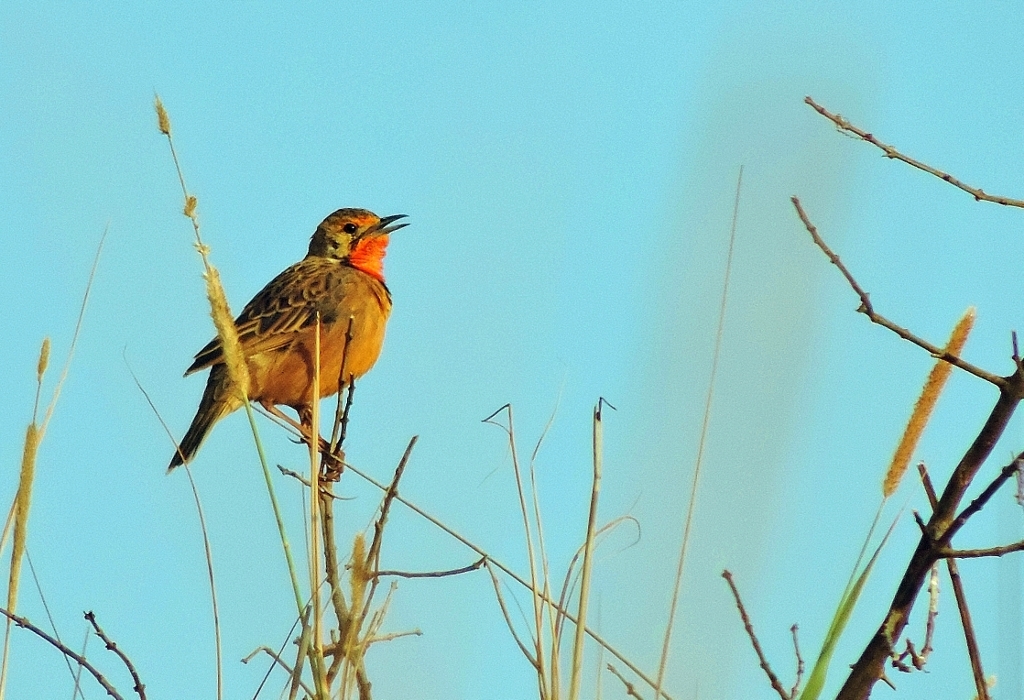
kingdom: Animalia
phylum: Chordata
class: Aves
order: Passeriformes
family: Motacillidae
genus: Macronyx
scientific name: Macronyx capensis
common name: Cape longclaw
